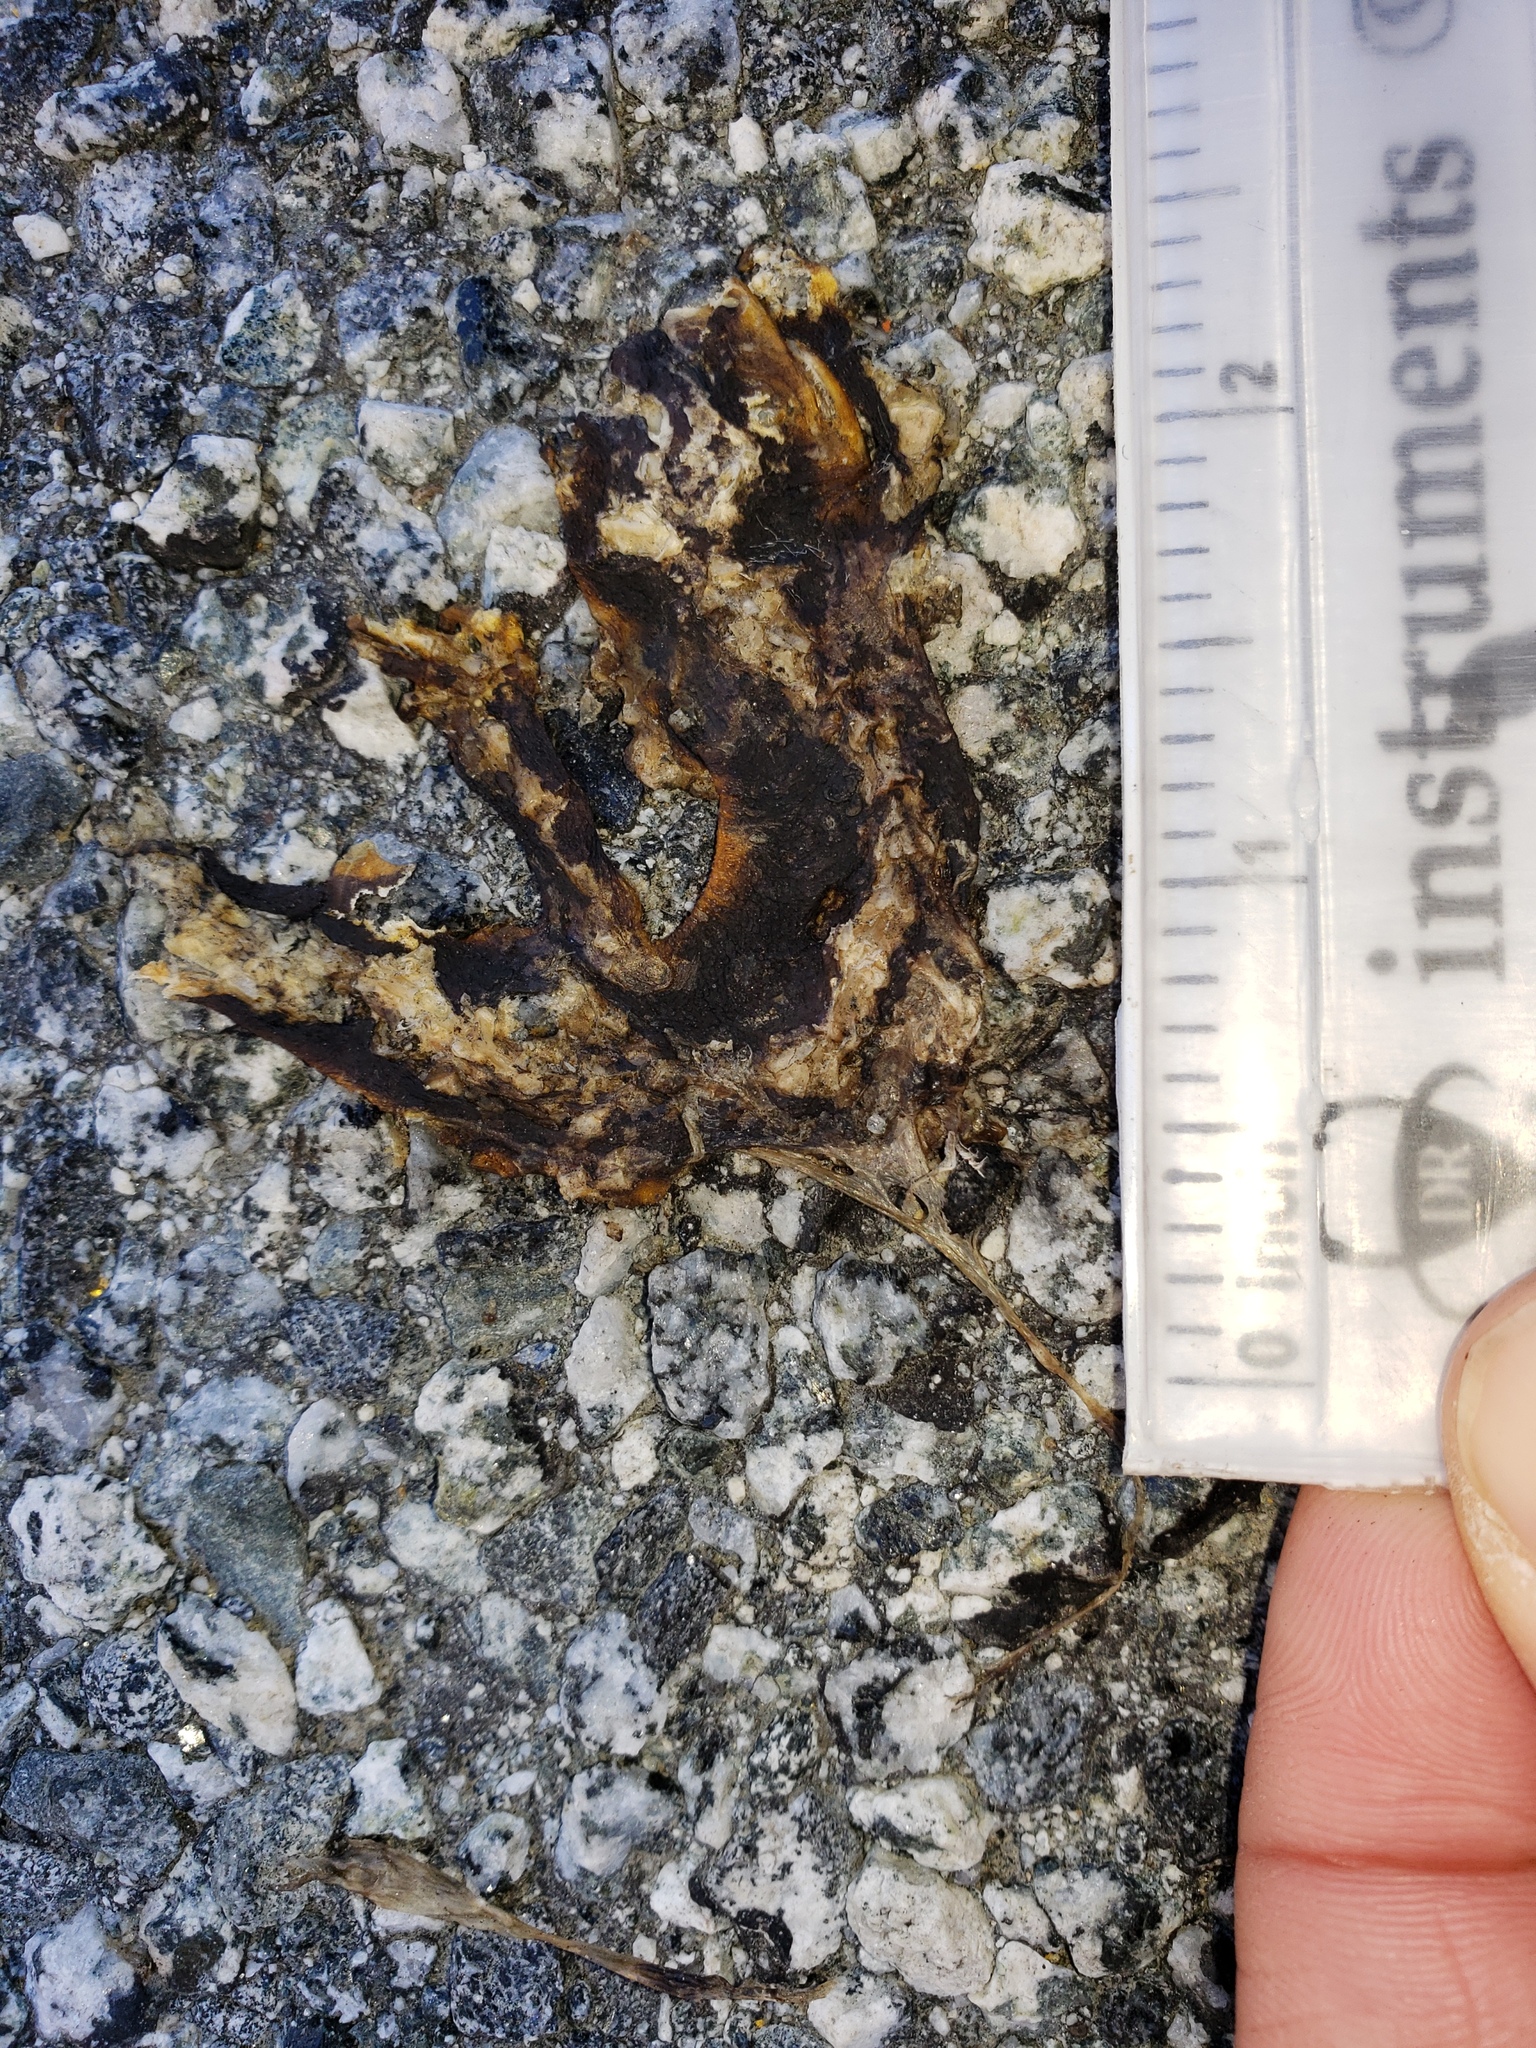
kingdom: Animalia
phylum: Chordata
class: Amphibia
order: Caudata
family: Salamandridae
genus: Taricha
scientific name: Taricha
